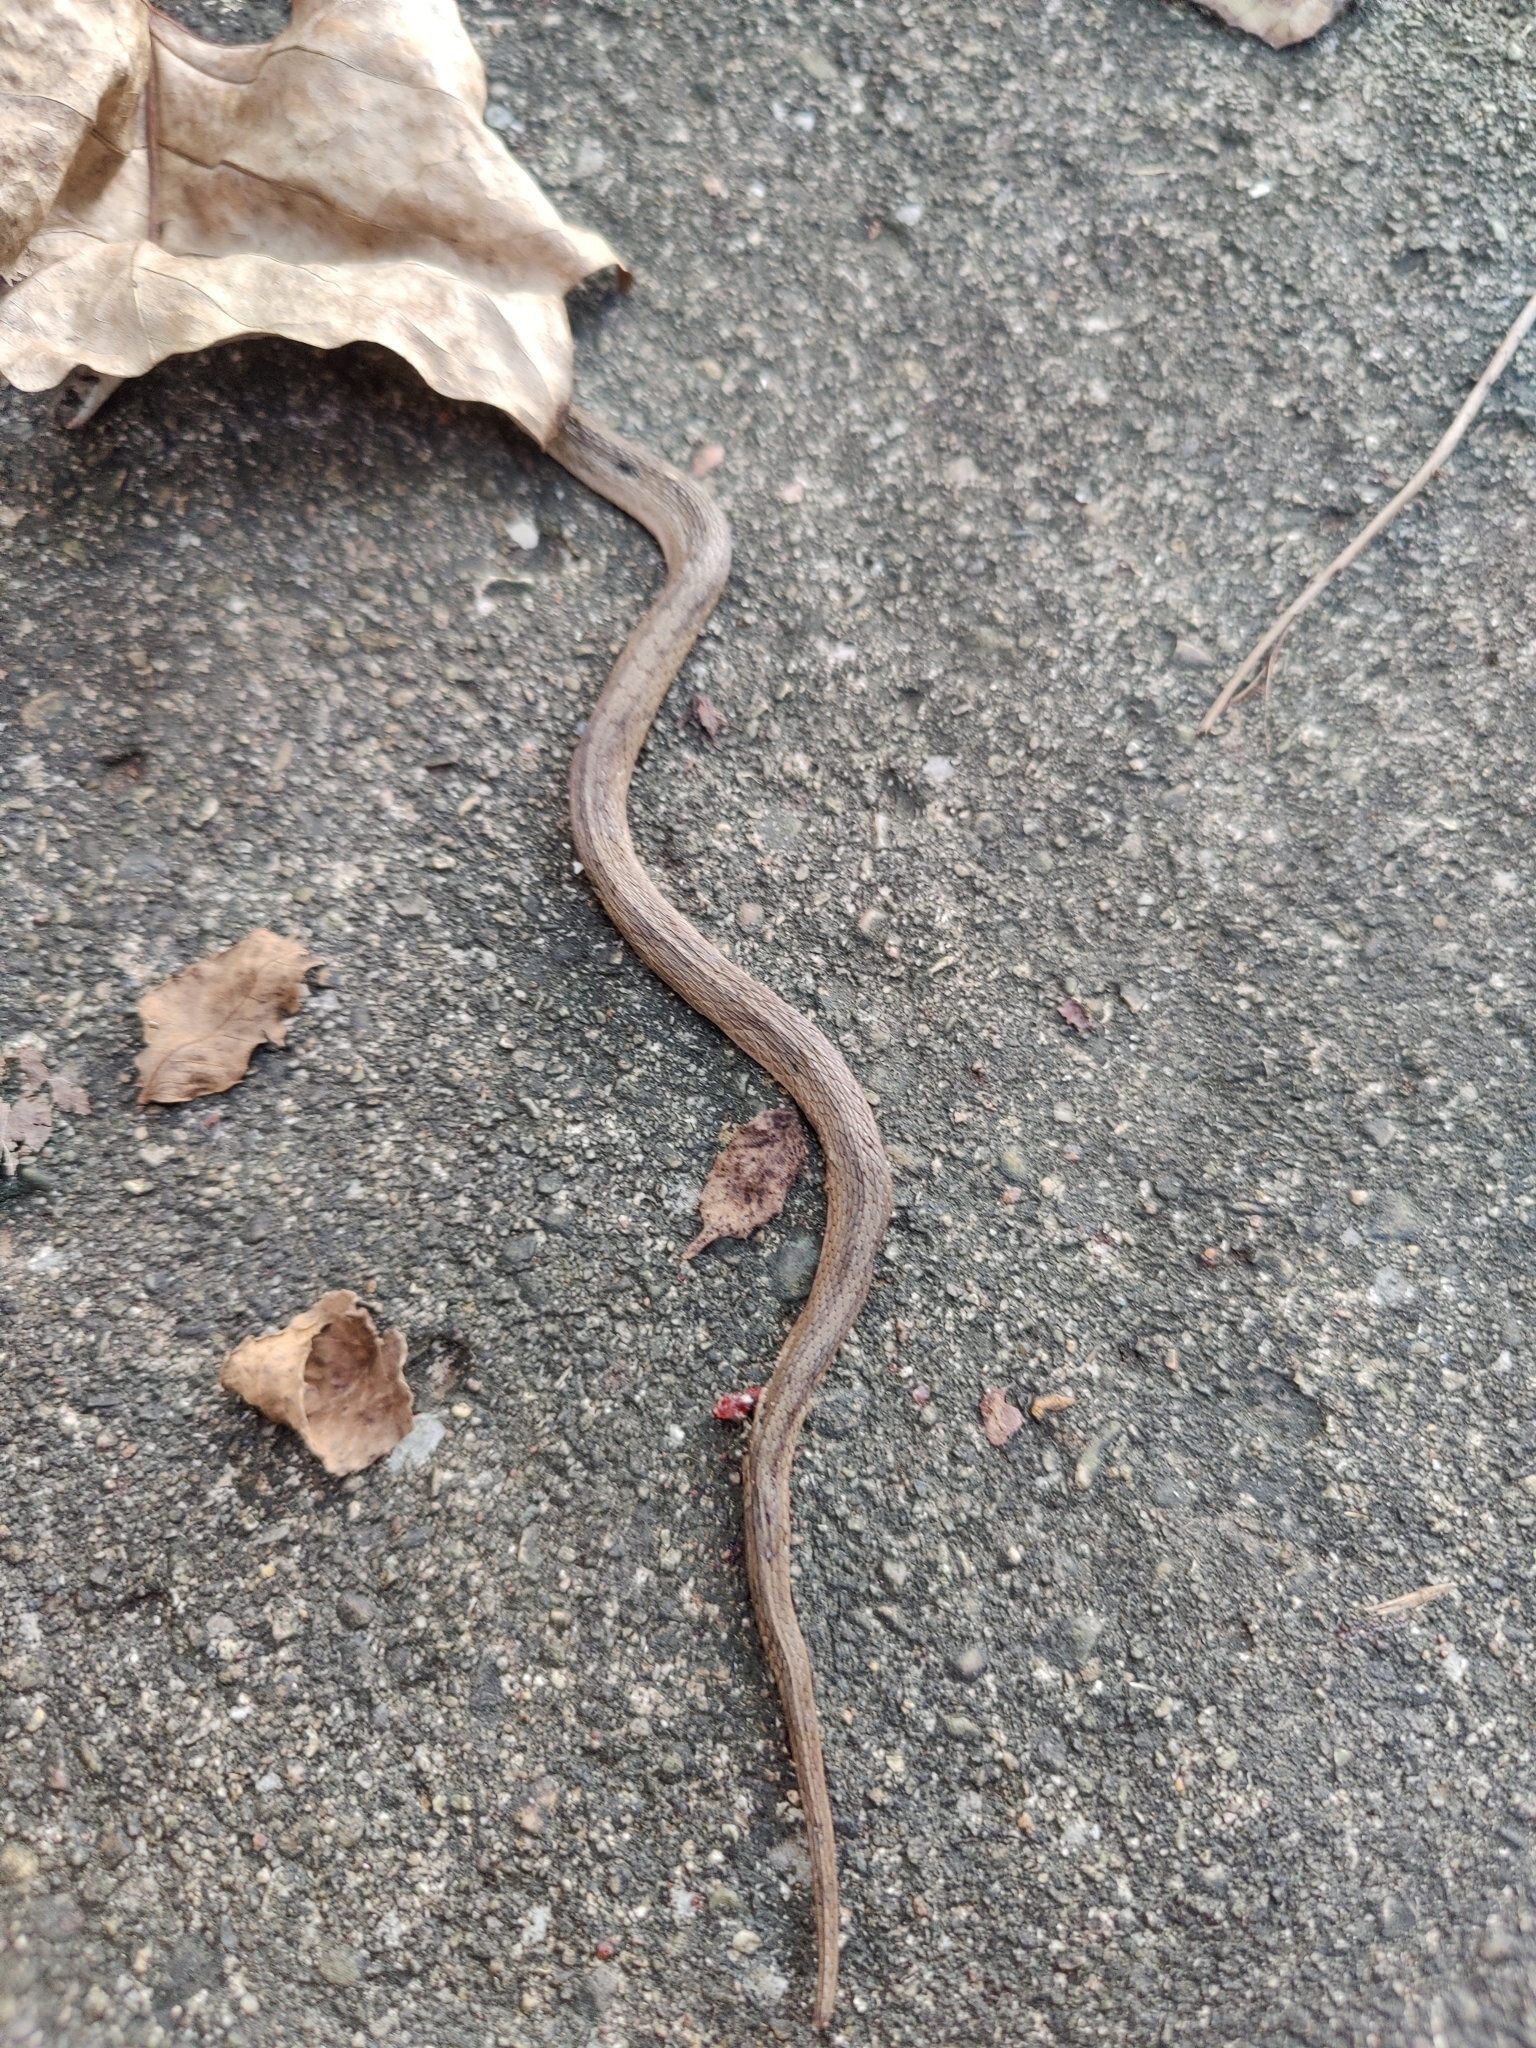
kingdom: Animalia
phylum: Chordata
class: Squamata
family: Colubridae
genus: Storeria
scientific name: Storeria dekayi
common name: (dekay’s) brown snake
